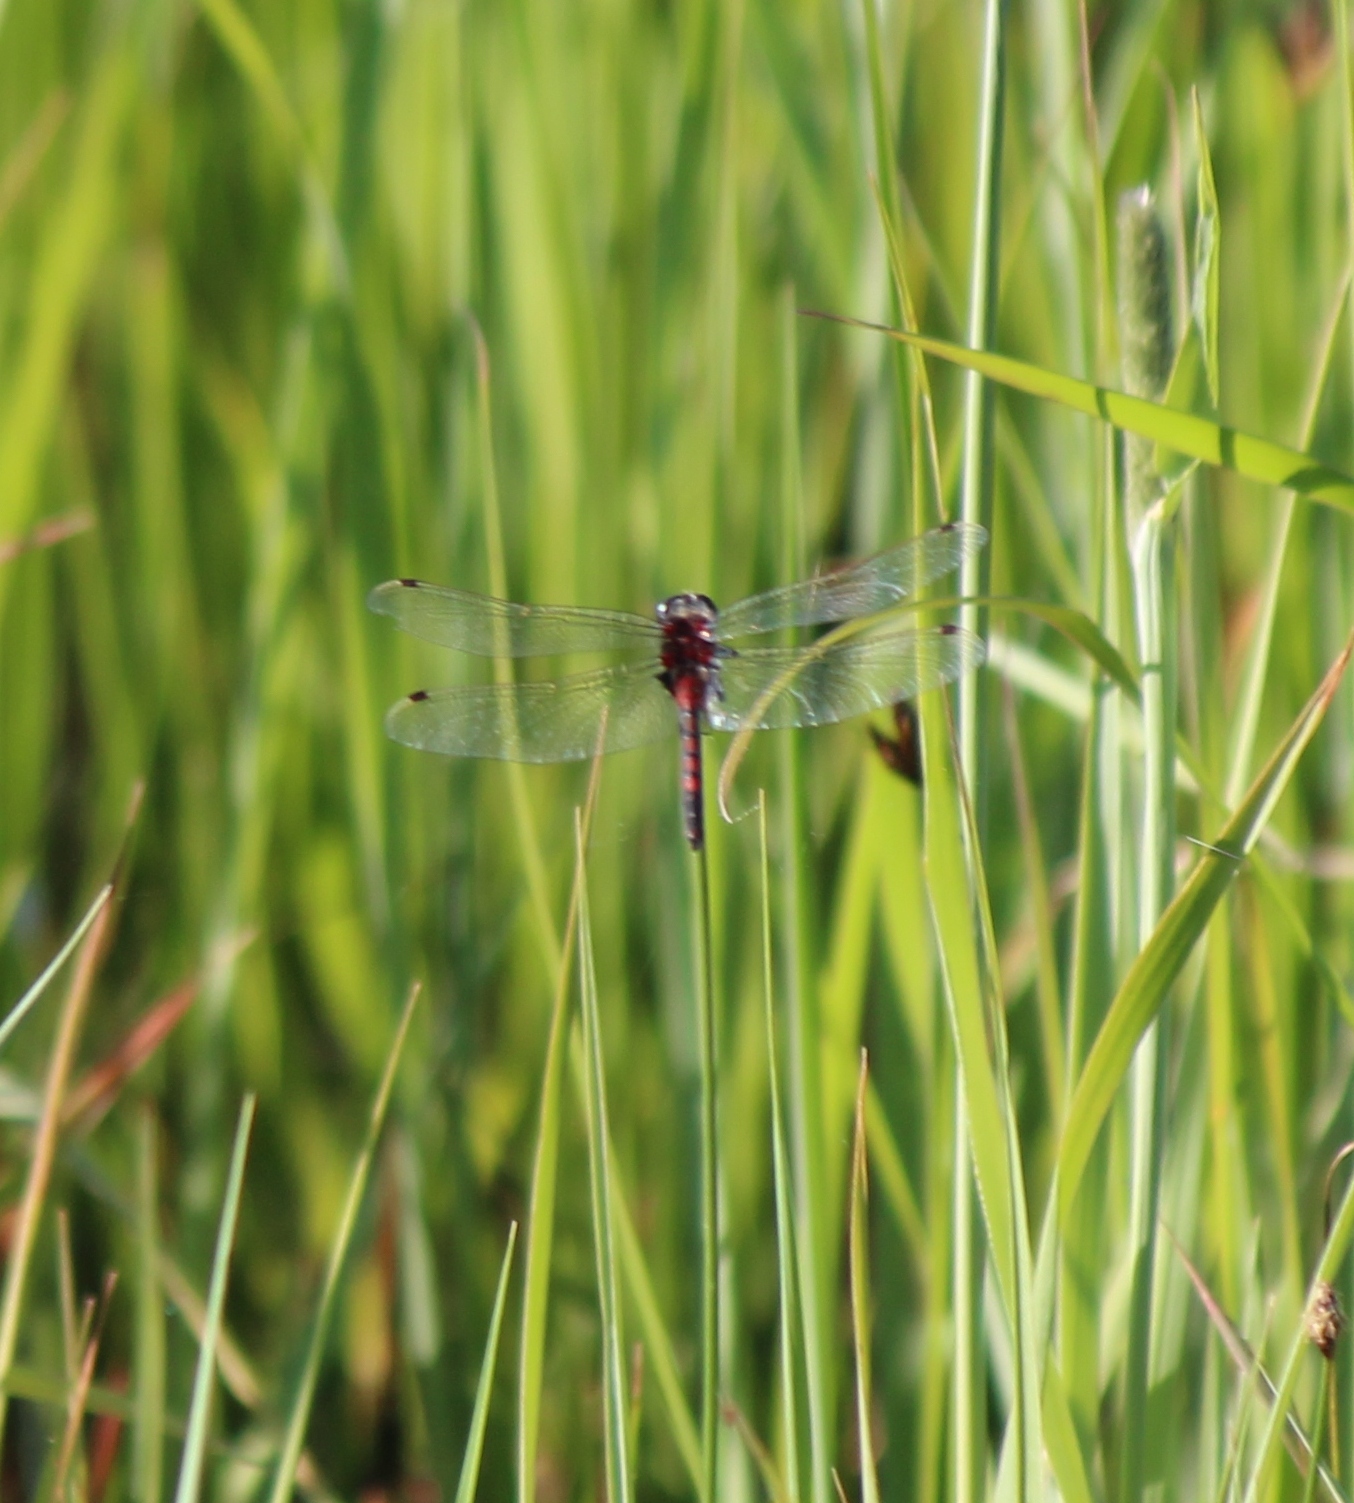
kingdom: Animalia
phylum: Arthropoda
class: Insecta
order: Odonata
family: Libellulidae
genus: Leucorrhinia
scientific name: Leucorrhinia rubicunda
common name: Ruby whiteface
